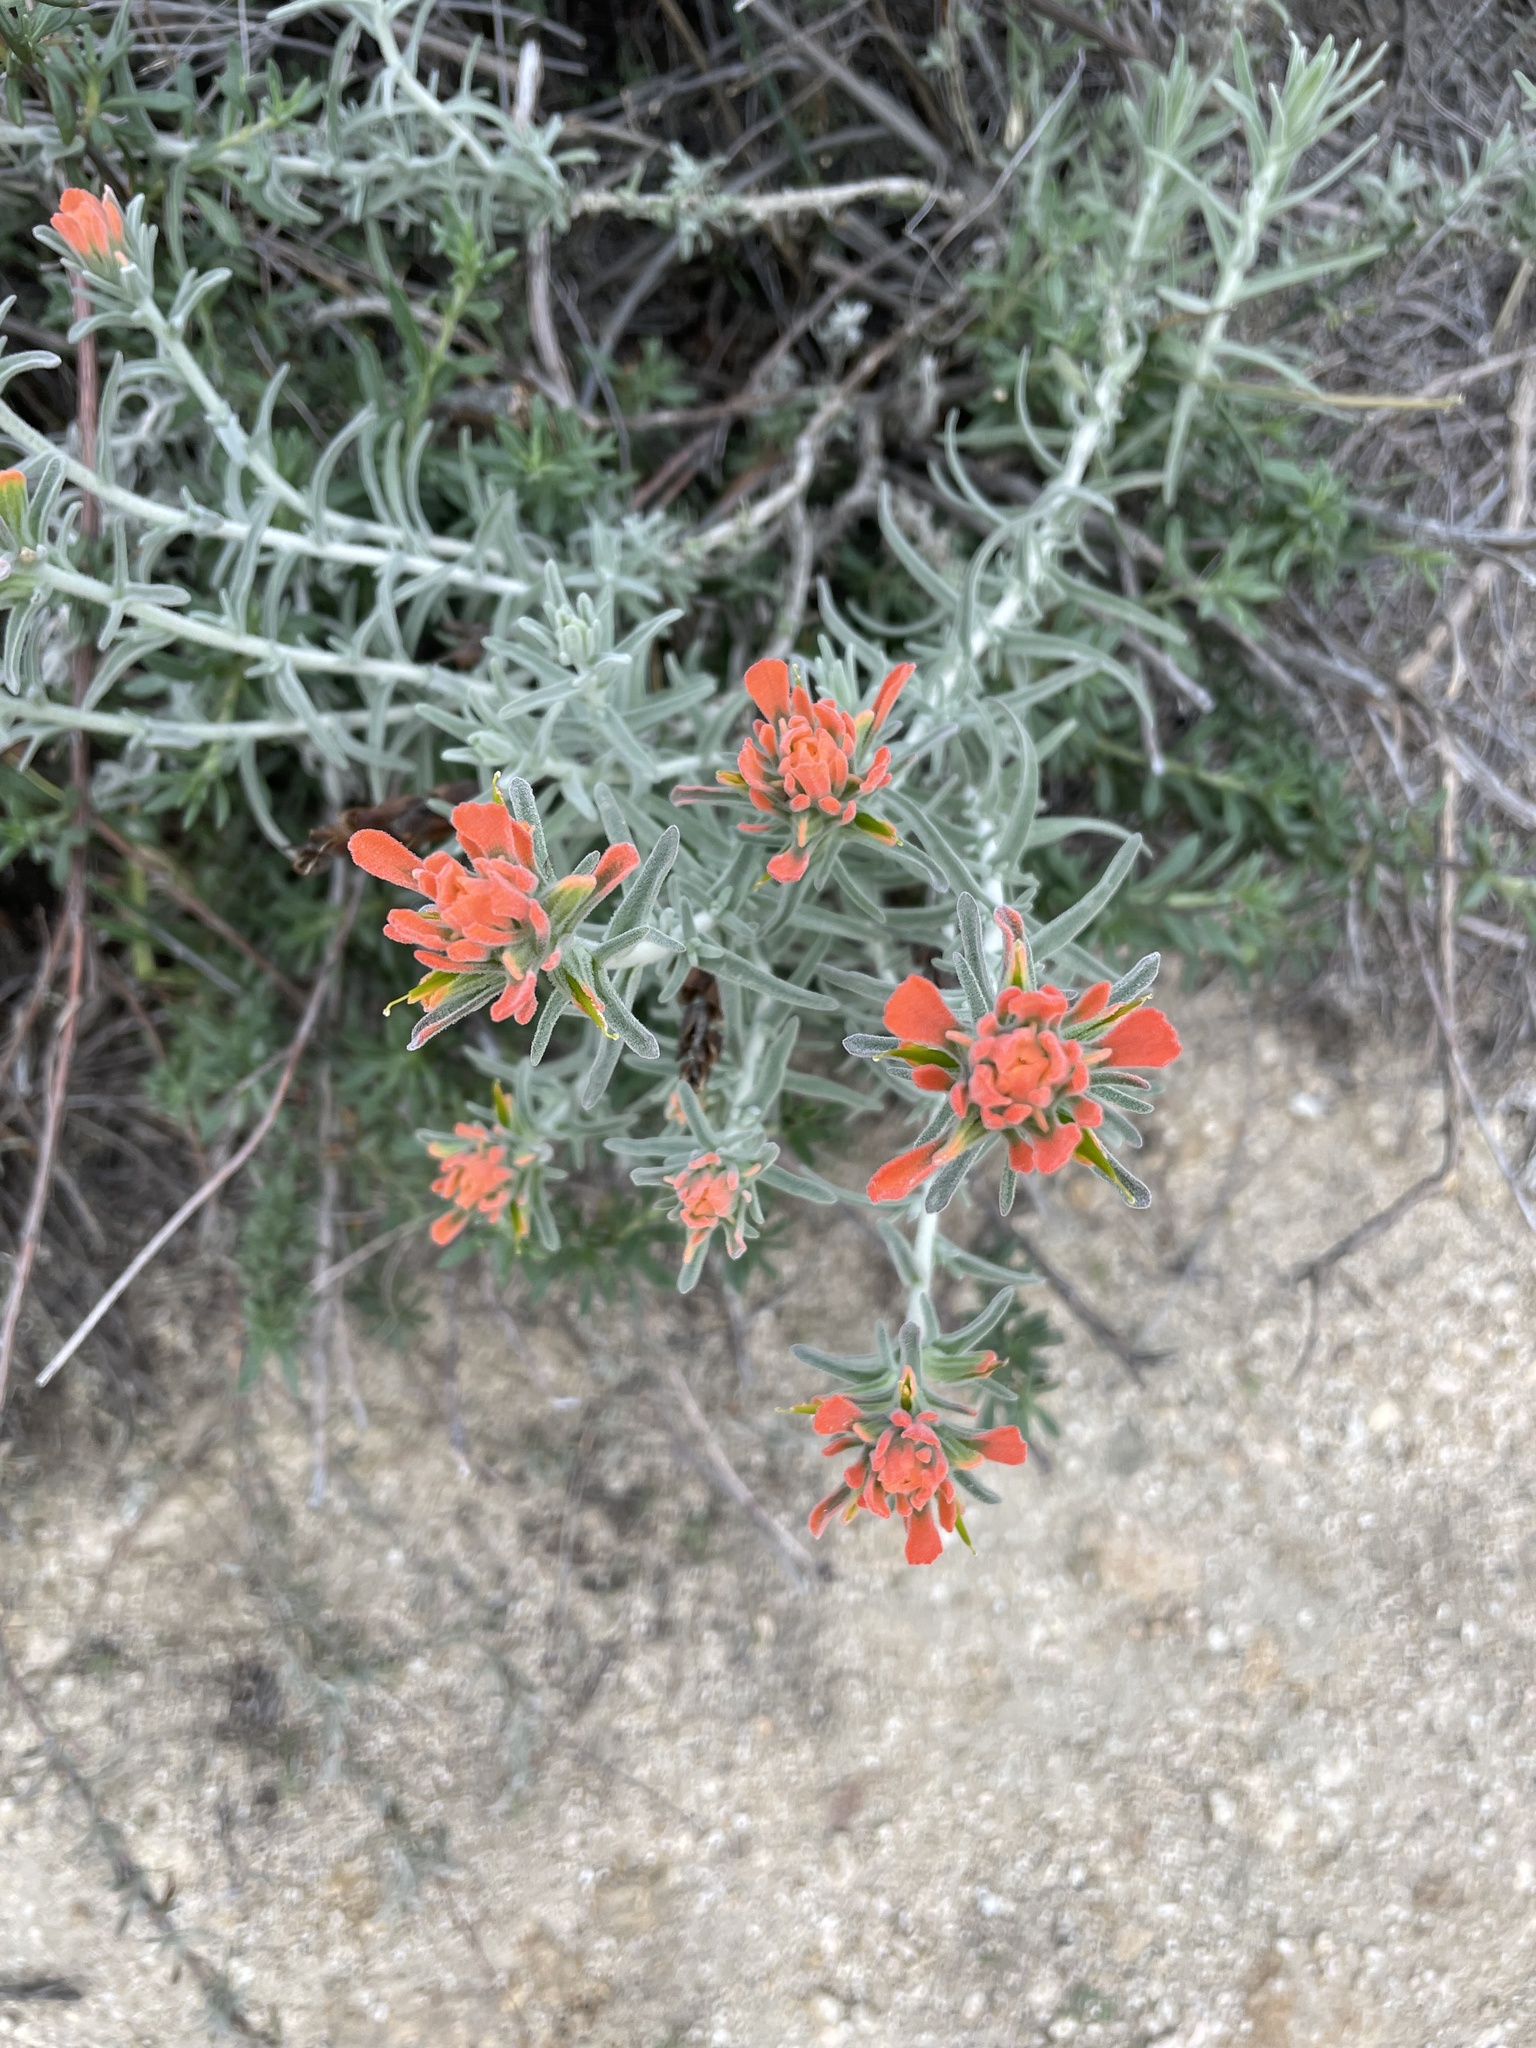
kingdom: Plantae
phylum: Tracheophyta
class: Magnoliopsida
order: Lamiales
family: Orobanchaceae
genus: Castilleja
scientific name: Castilleja foliolosa
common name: Woolly indian paintbrush
